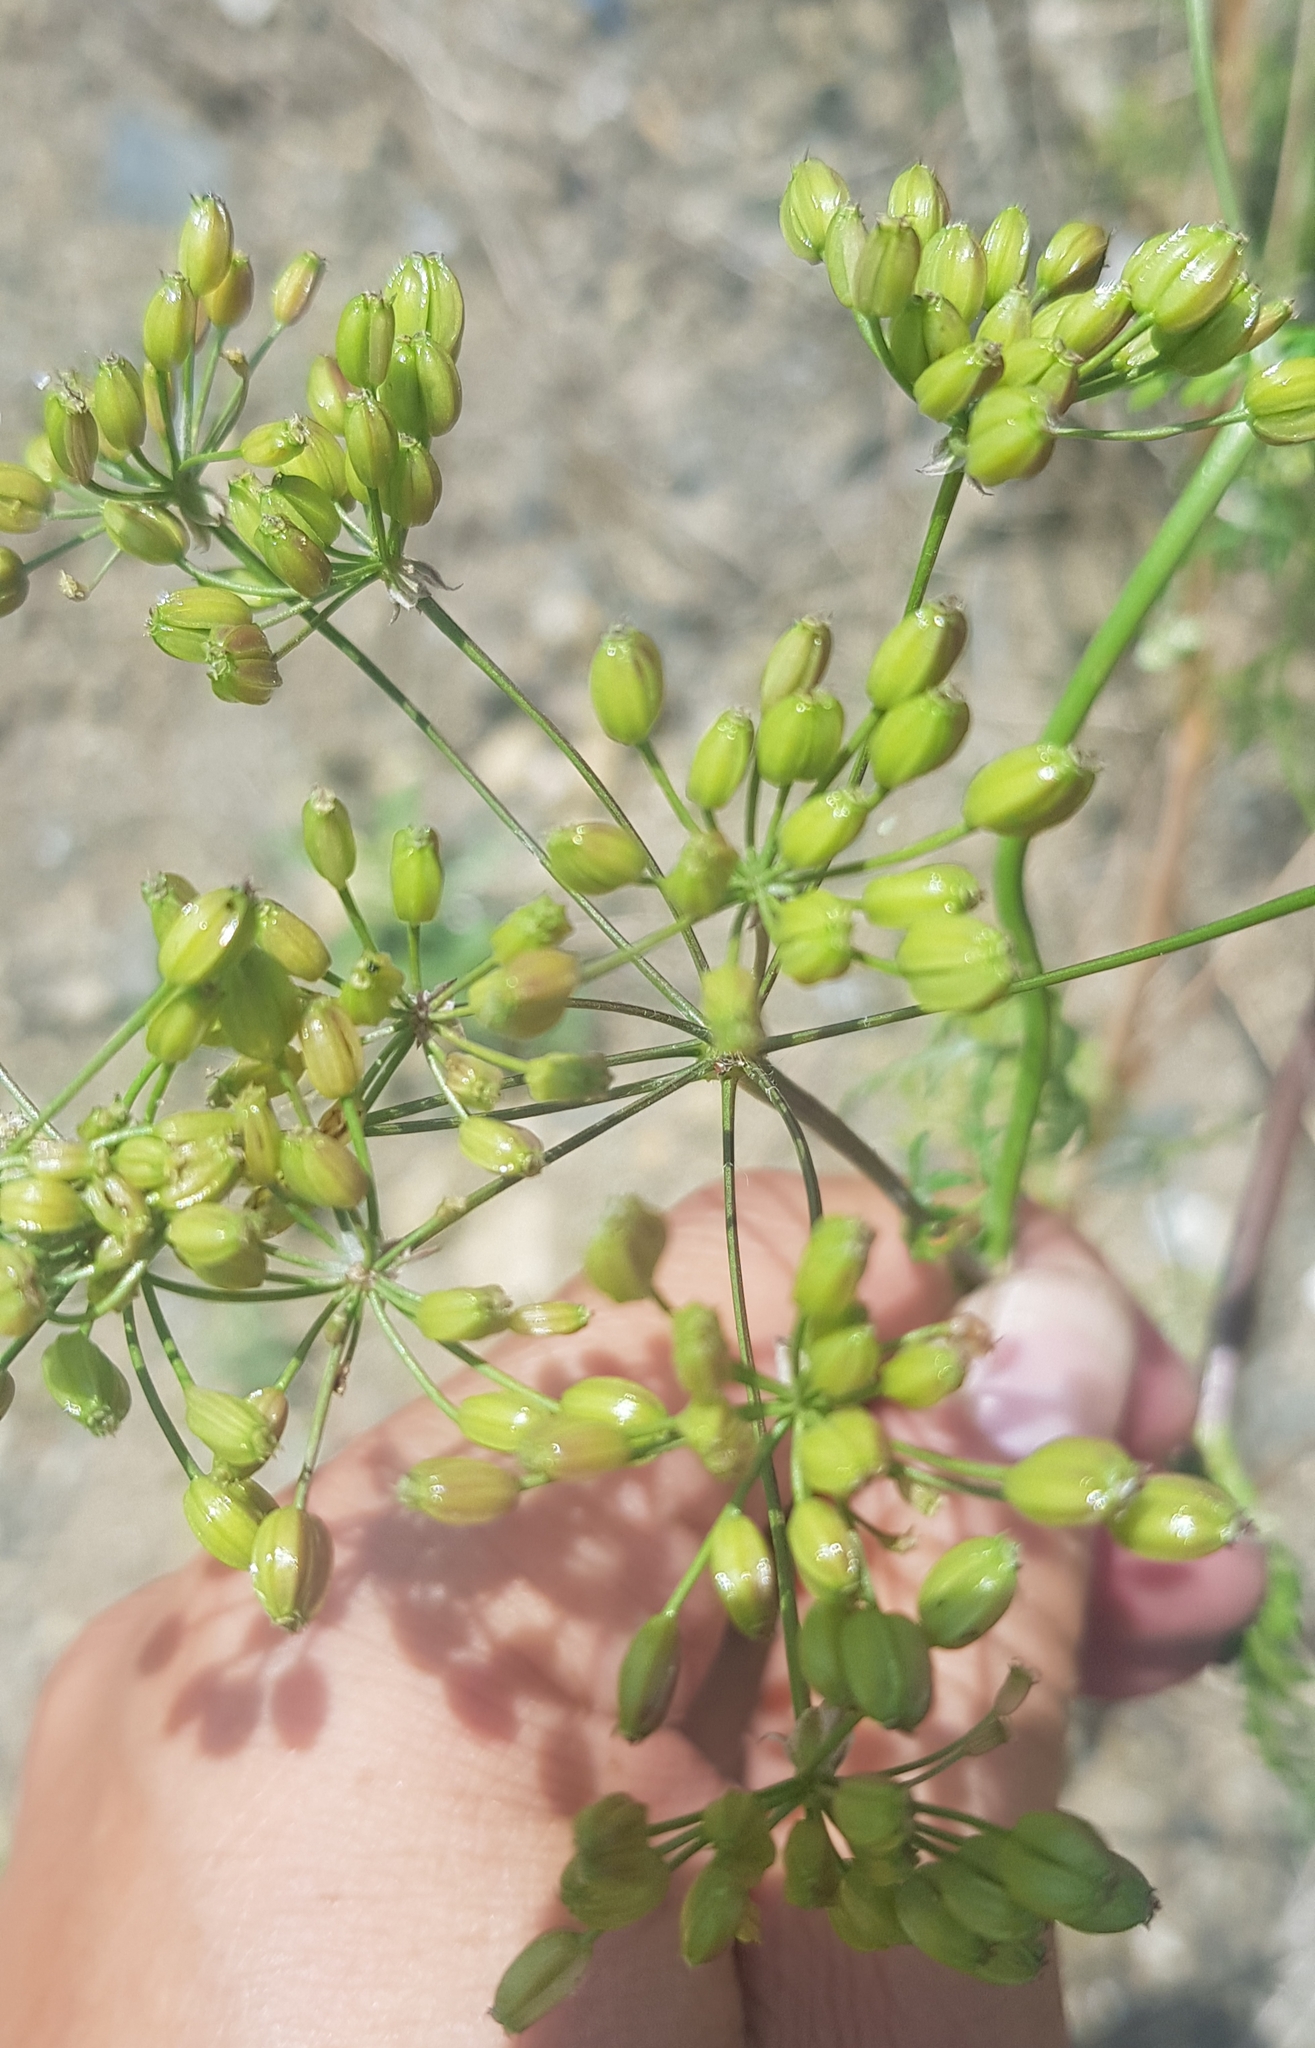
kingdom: Plantae
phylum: Tracheophyta
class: Magnoliopsida
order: Apiales
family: Apiaceae
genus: Sphallerocarpus
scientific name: Sphallerocarpus gracilis
